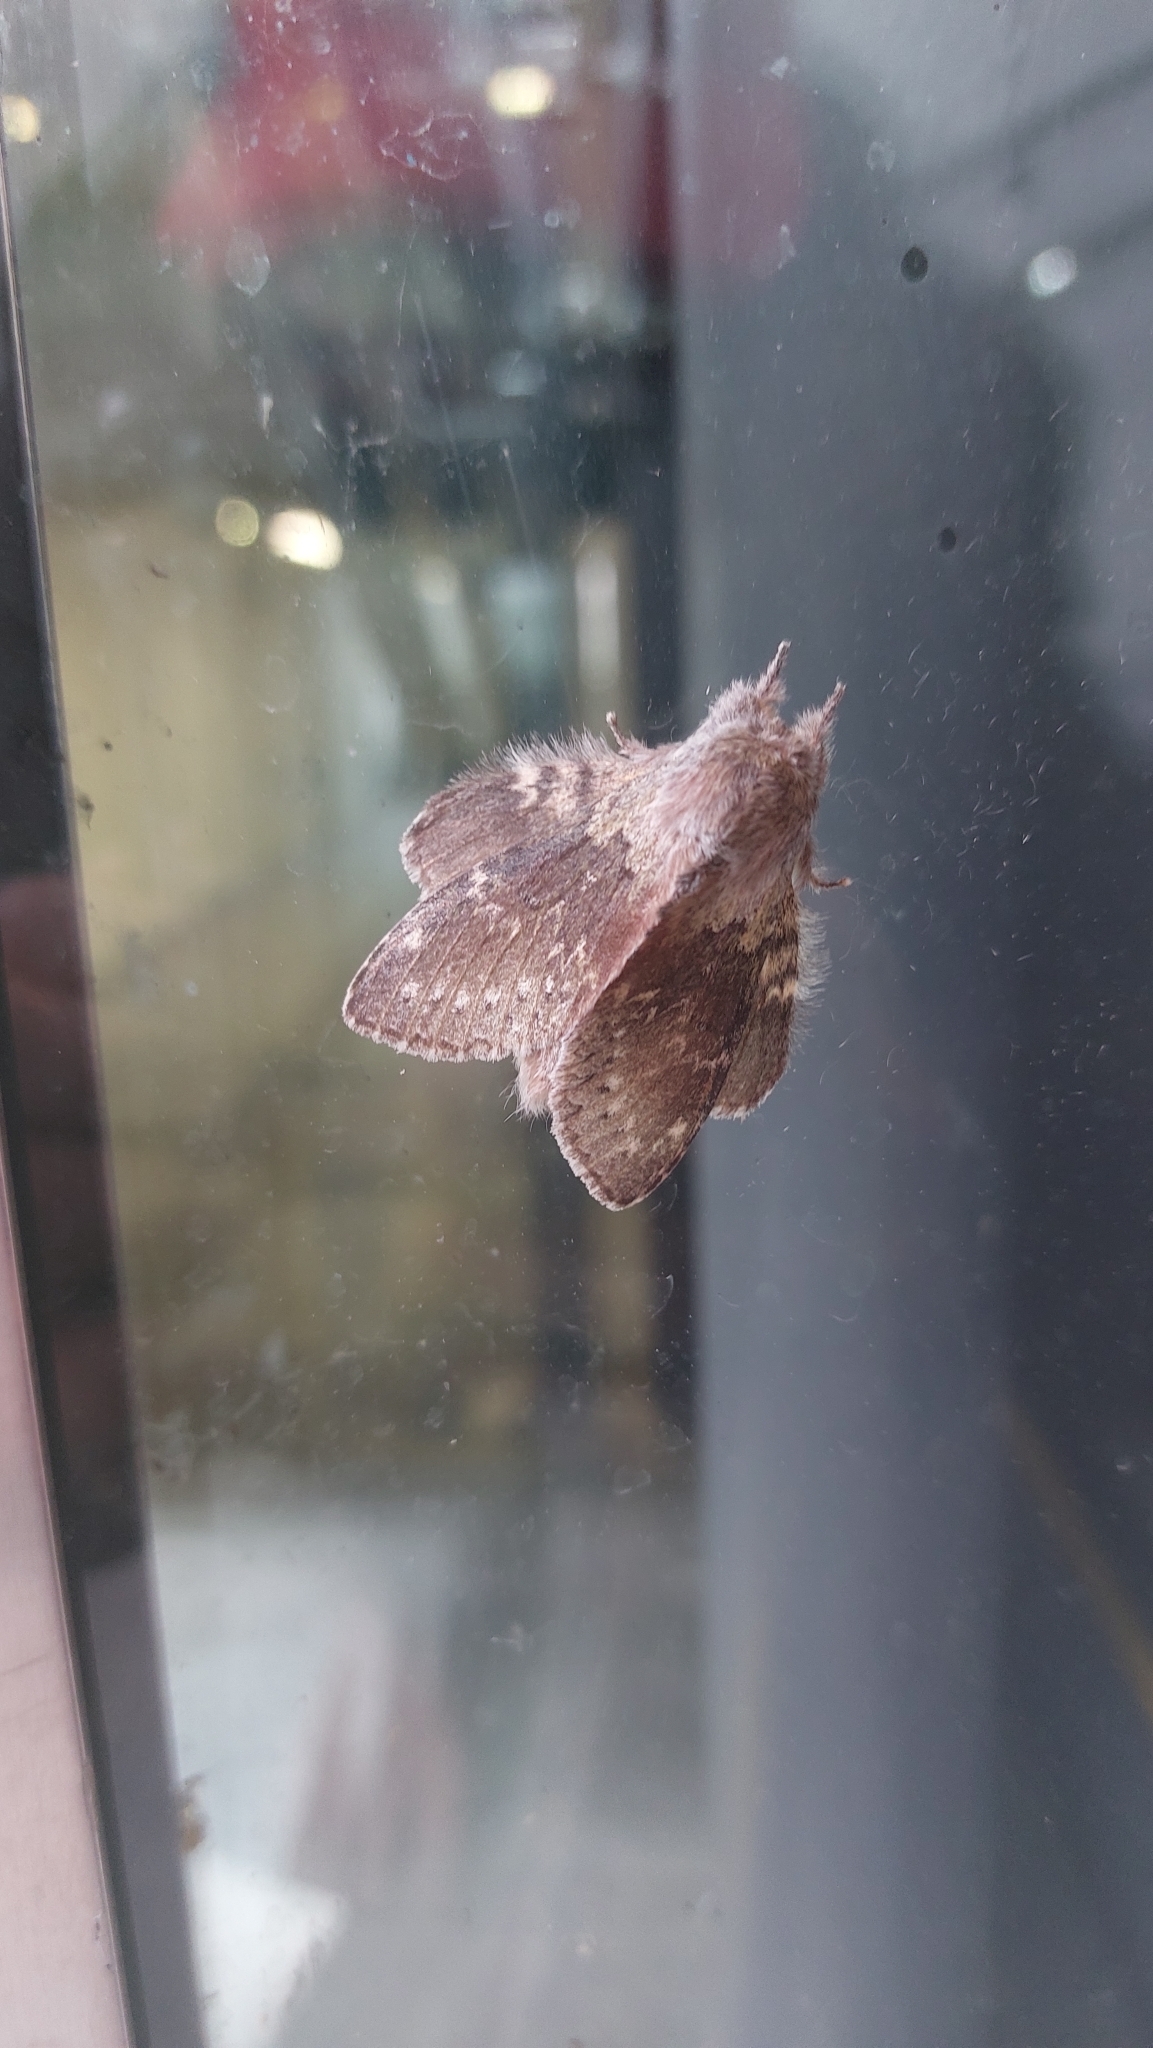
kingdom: Animalia
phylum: Arthropoda
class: Insecta
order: Lepidoptera
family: Notodontidae
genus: Stauropus
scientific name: Stauropus fagi
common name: Lobster moth
